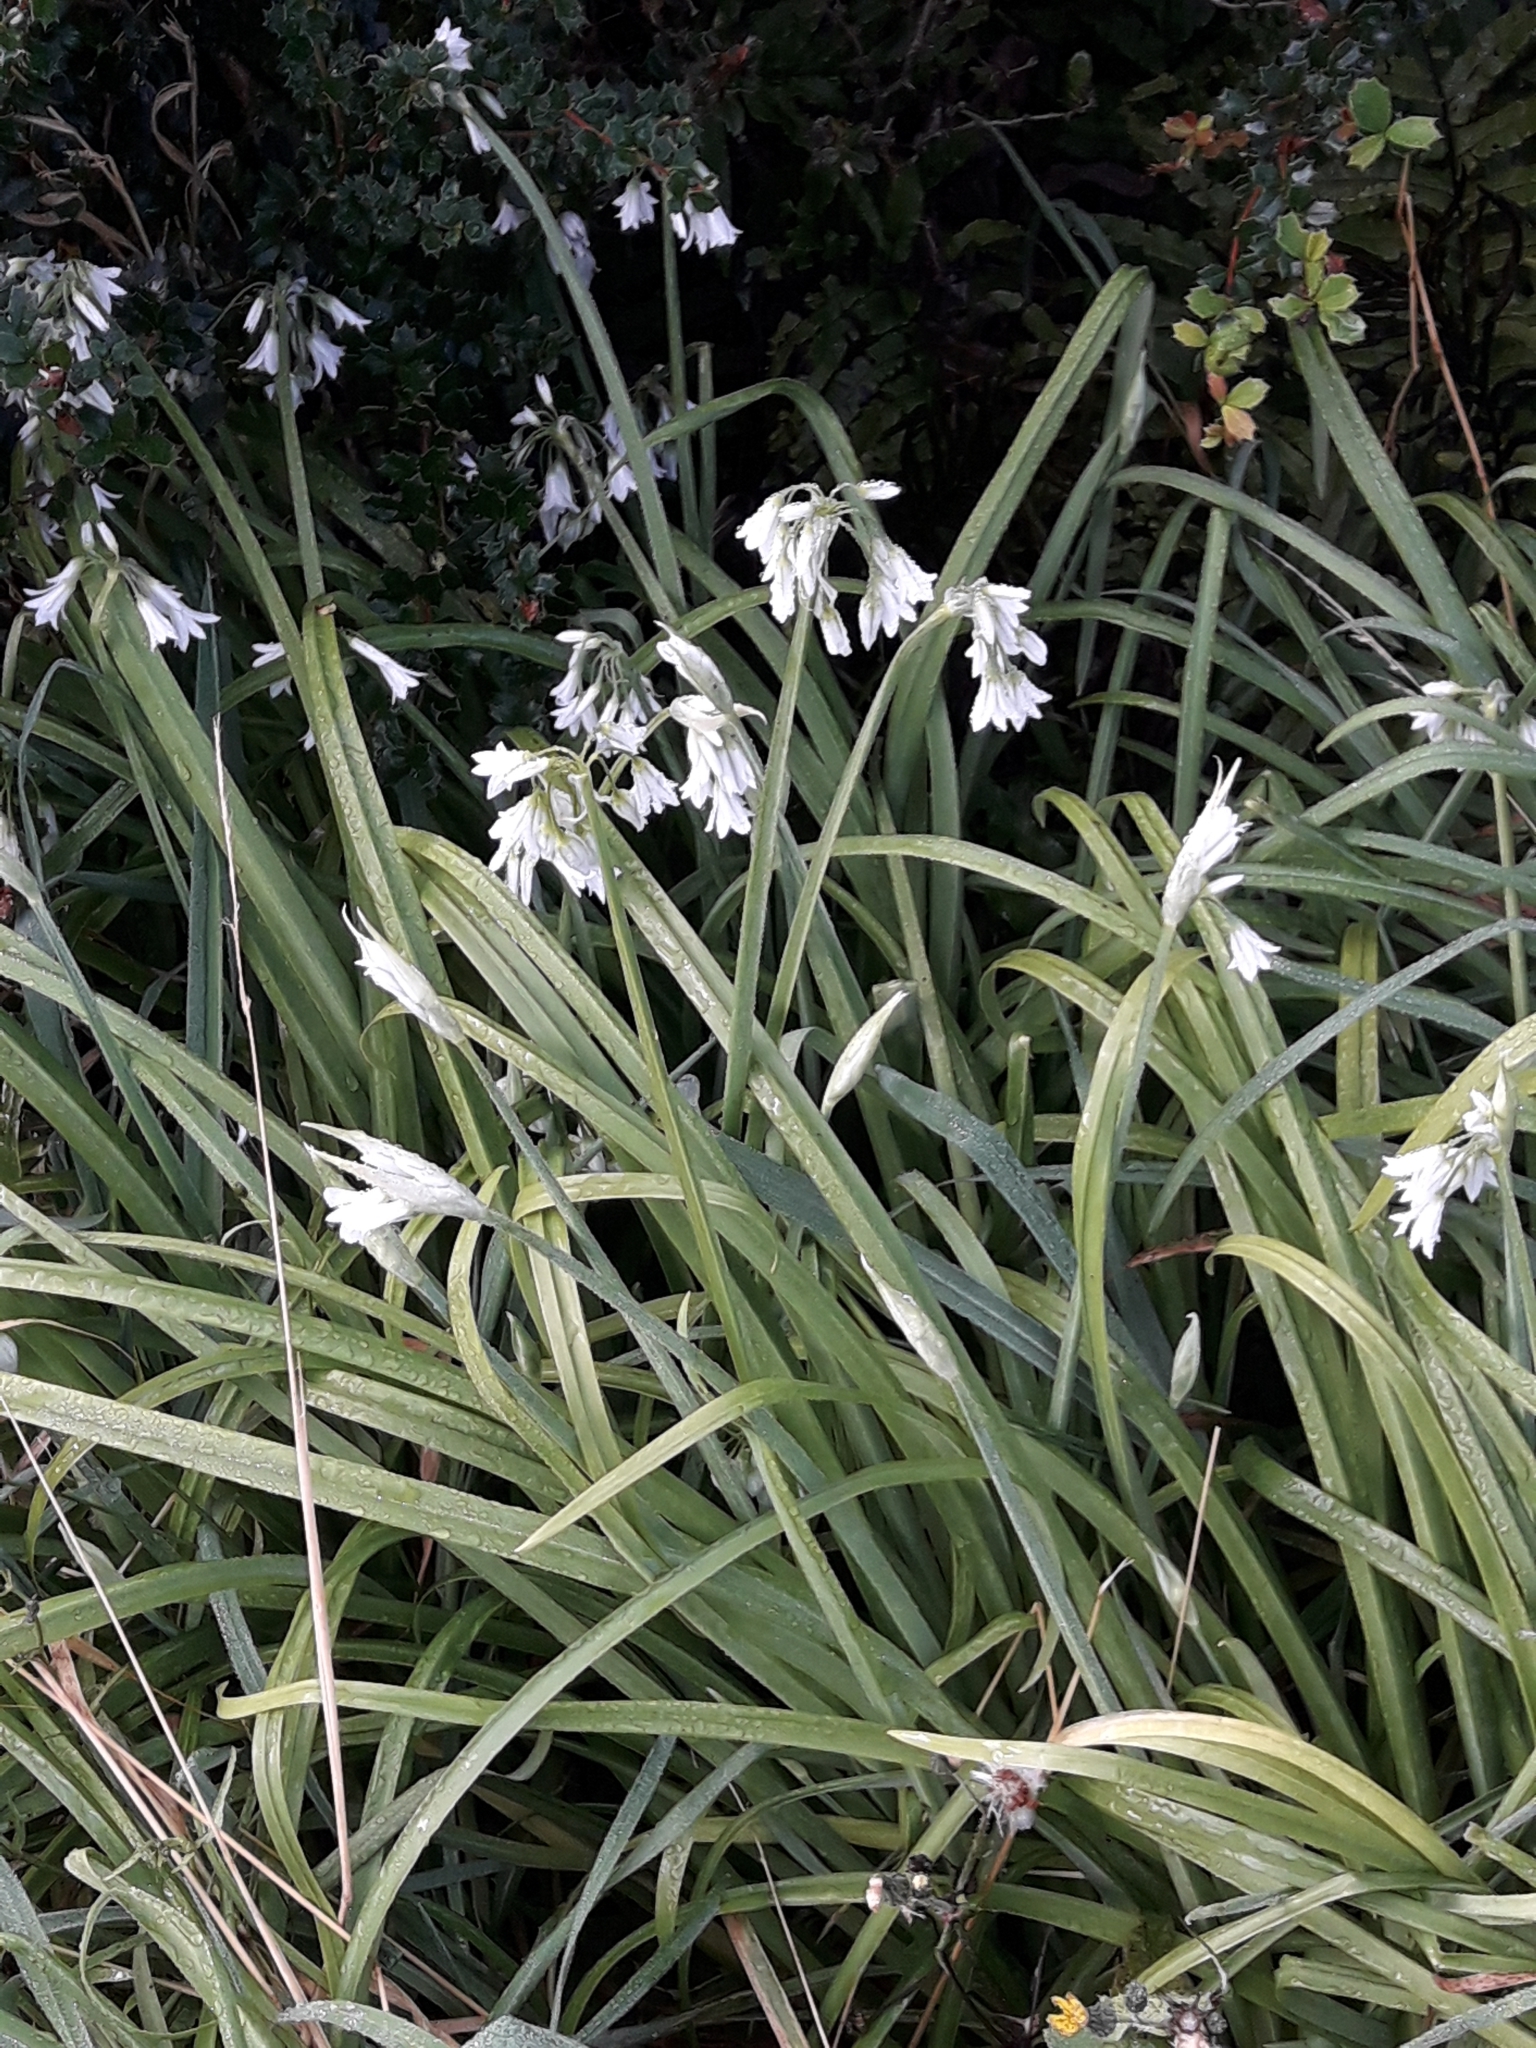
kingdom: Plantae
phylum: Tracheophyta
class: Liliopsida
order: Asparagales
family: Amaryllidaceae
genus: Allium
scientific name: Allium triquetrum
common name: Three-cornered garlic
